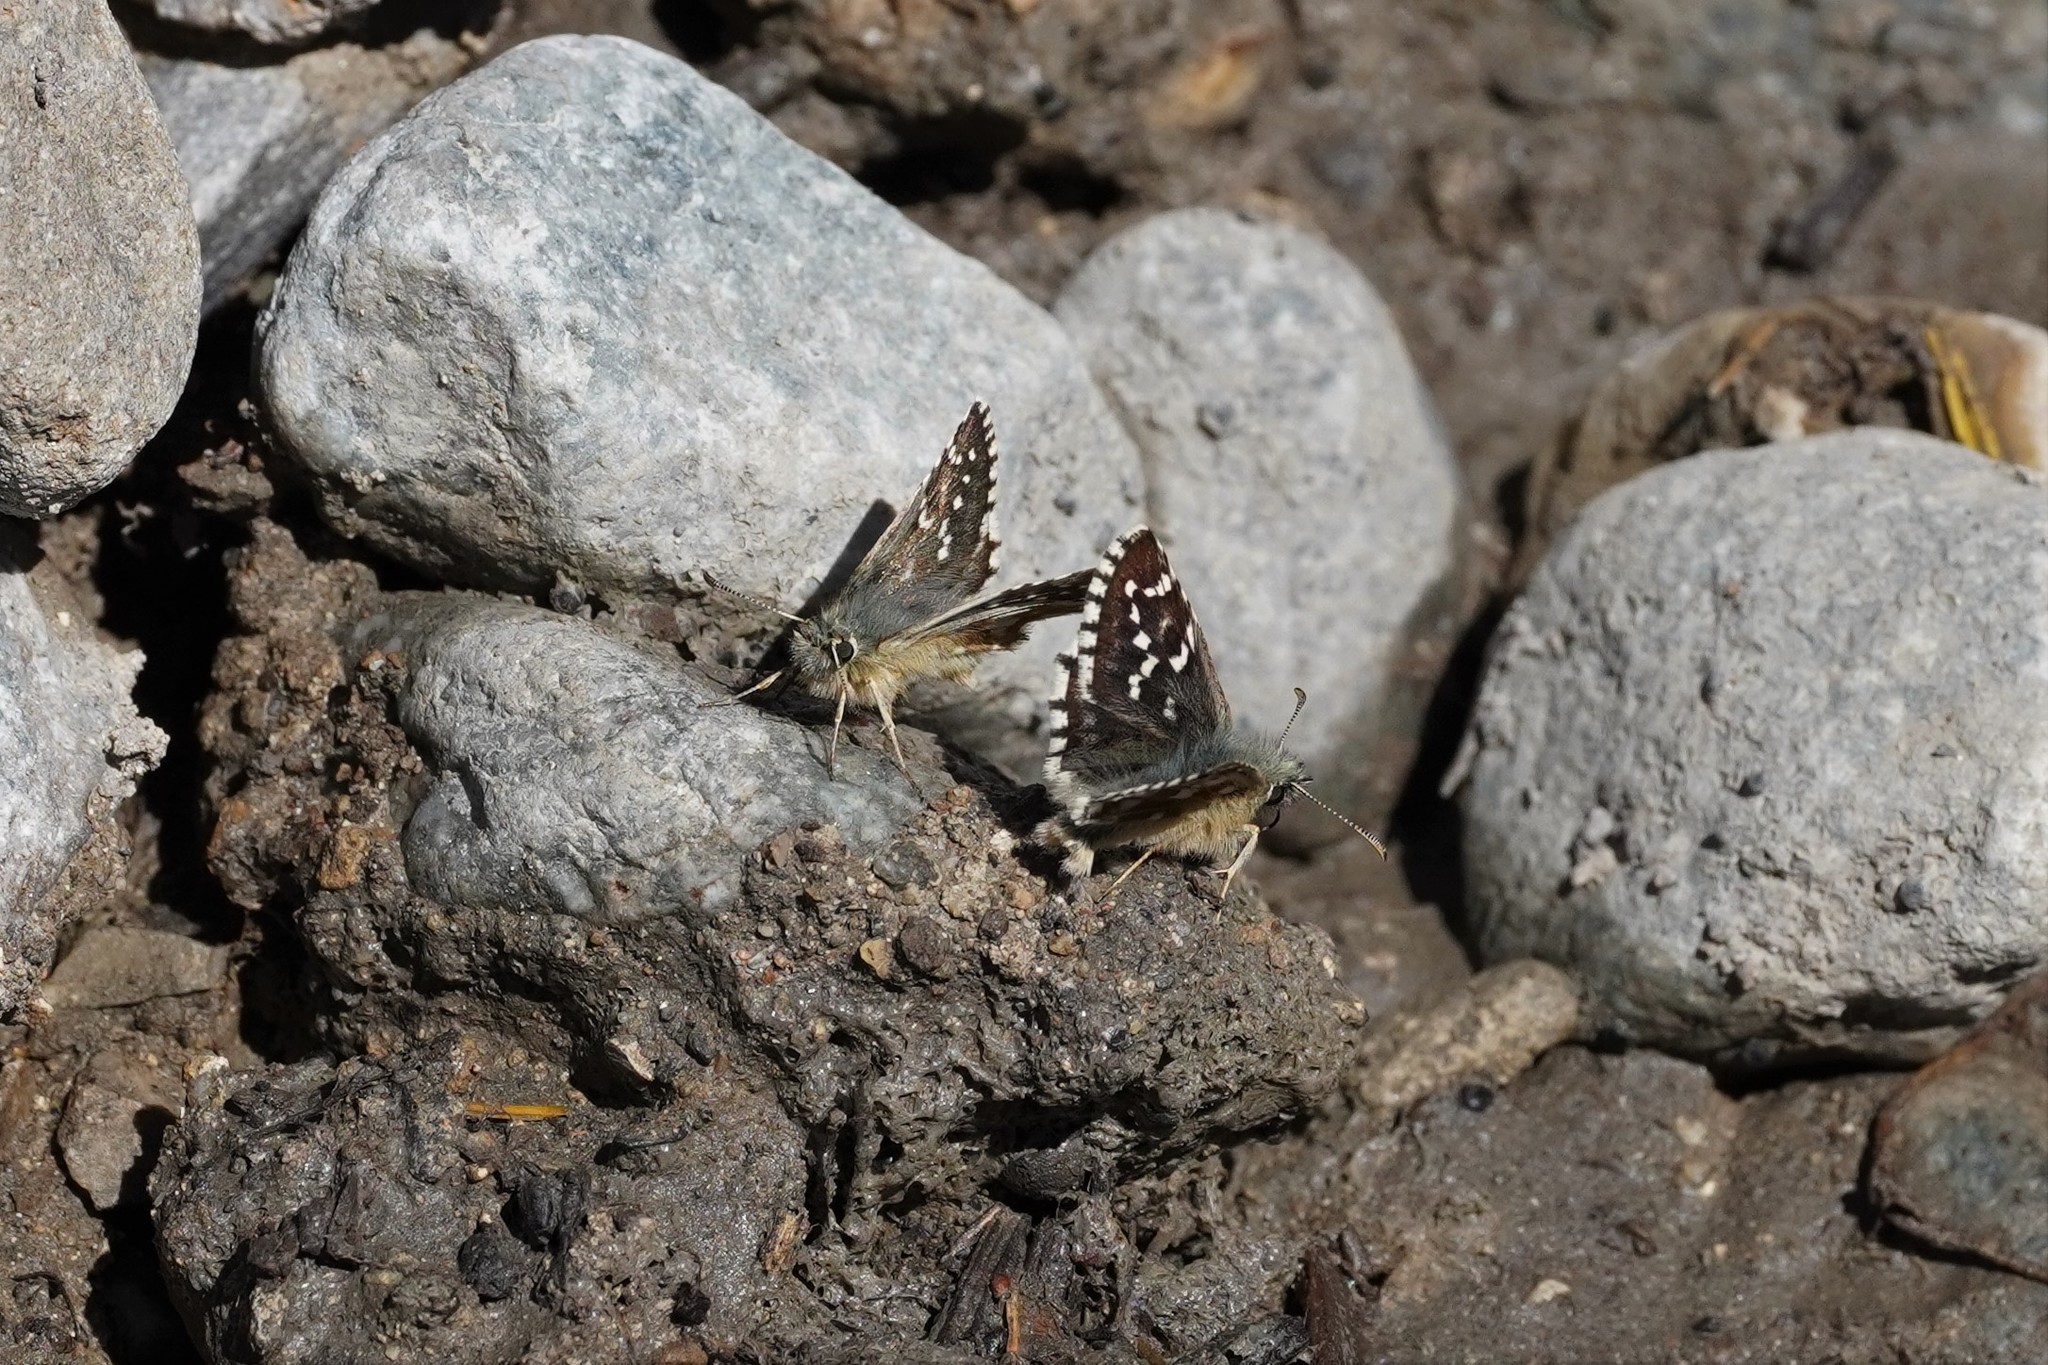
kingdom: Animalia
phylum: Arthropoda
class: Insecta
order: Lepidoptera
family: Hesperiidae
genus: Pyrgus
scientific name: Pyrgus carlinae
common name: Carline skipper
